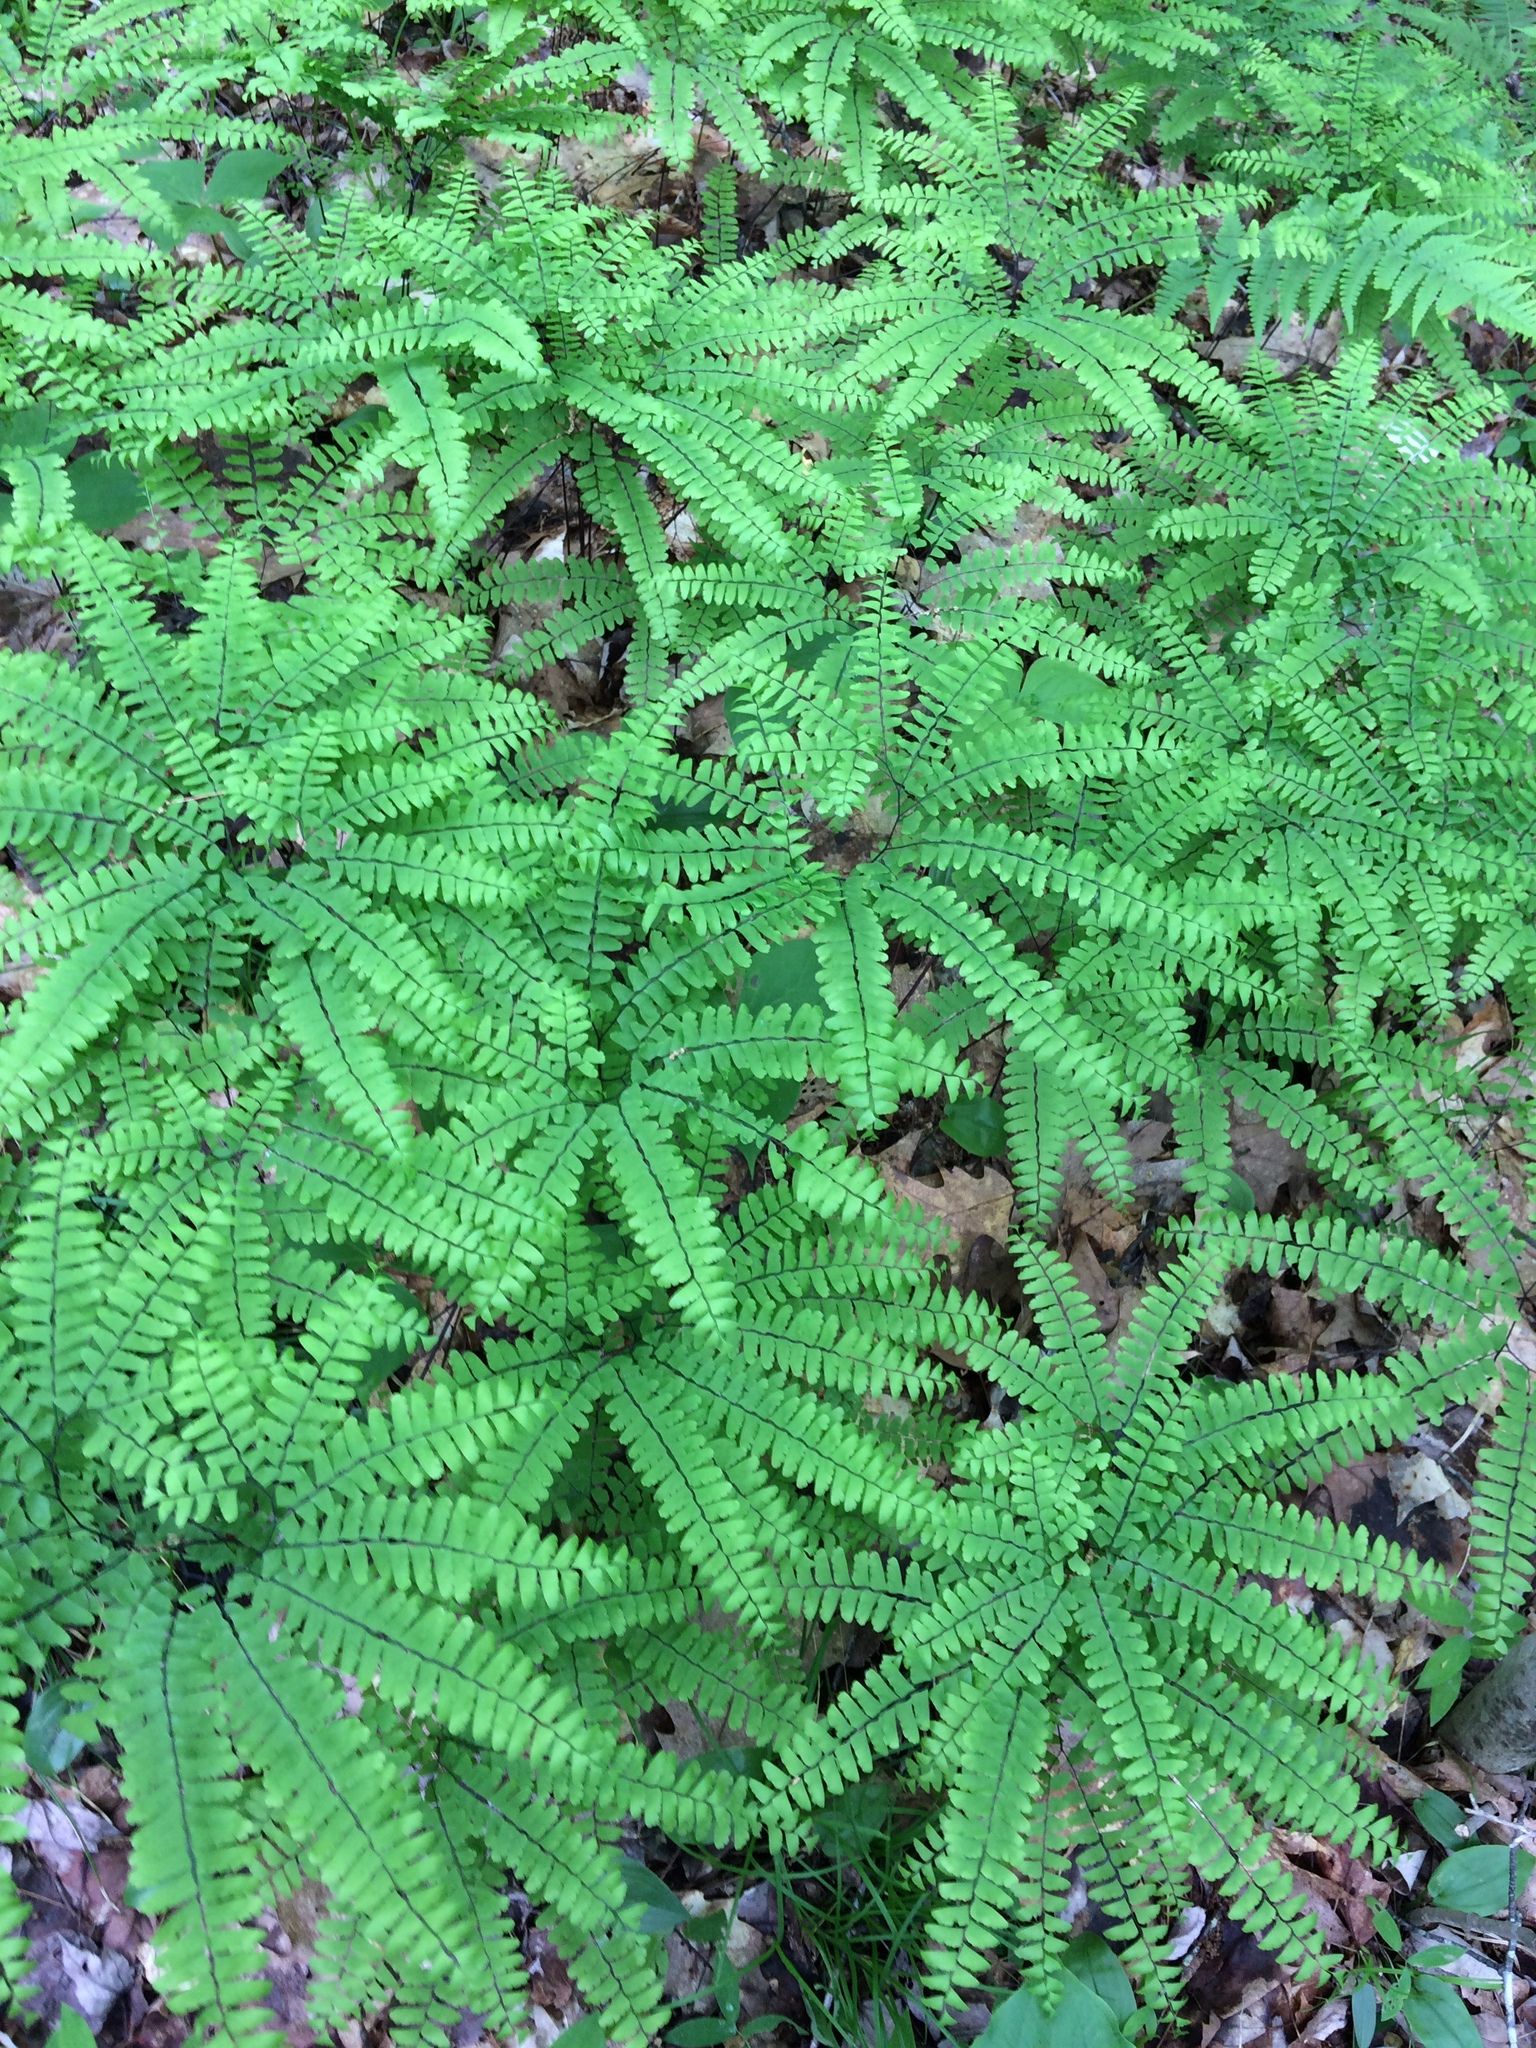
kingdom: Plantae
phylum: Tracheophyta
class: Polypodiopsida
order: Polypodiales
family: Pteridaceae
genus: Adiantum
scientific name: Adiantum pedatum
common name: Five-finger fern
